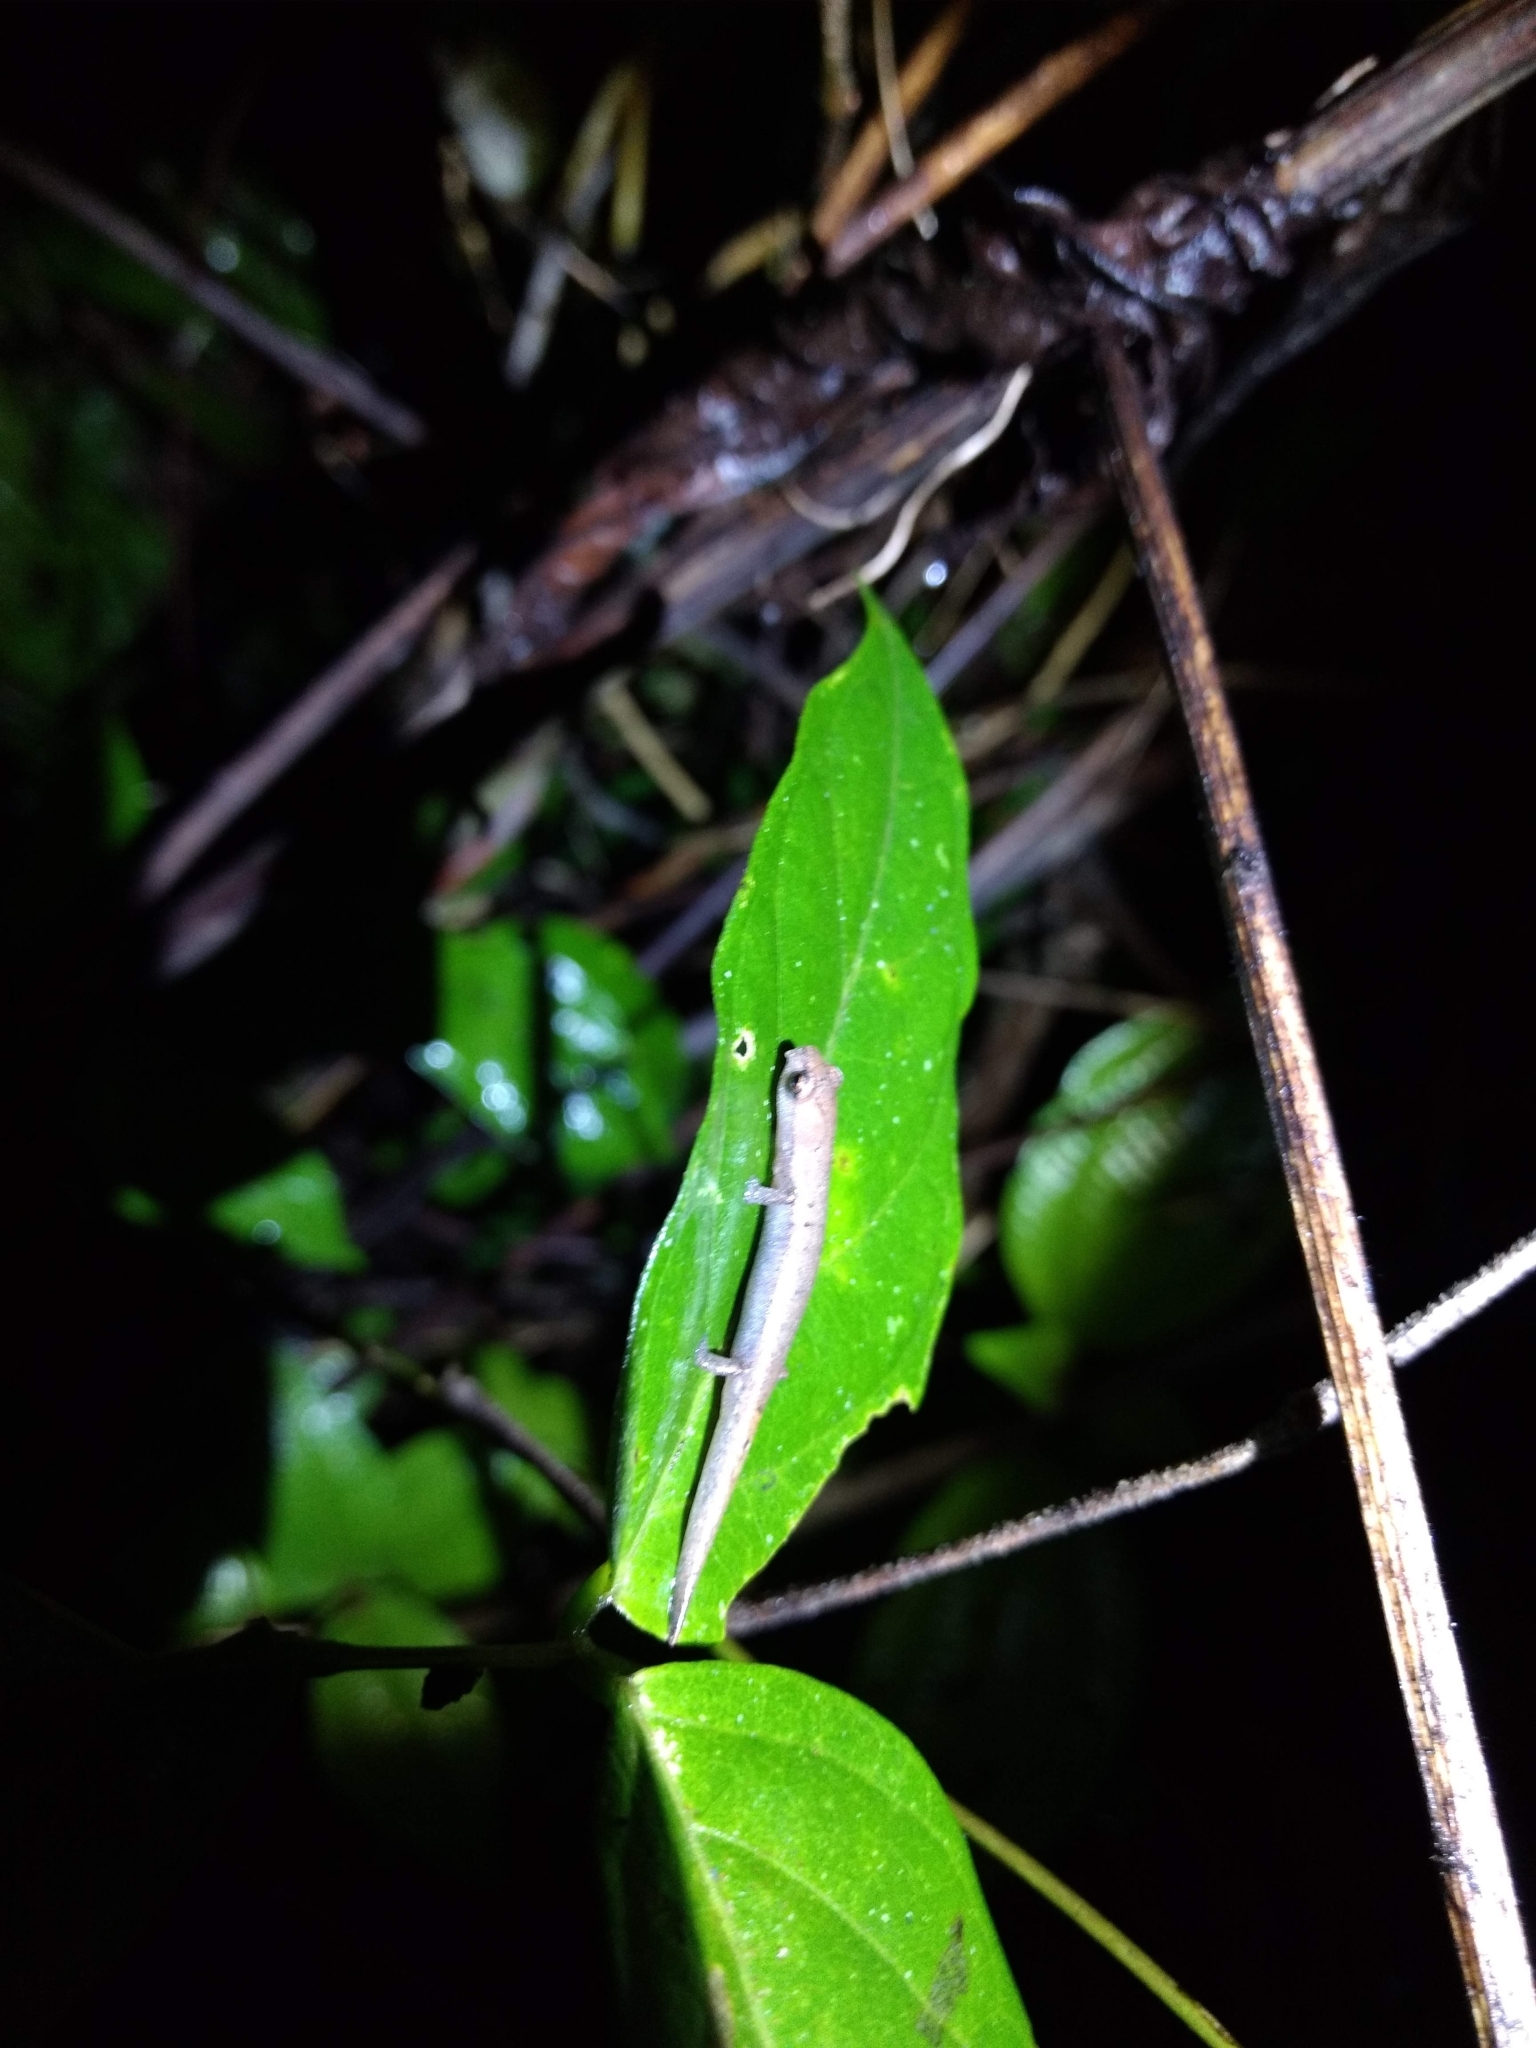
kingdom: Animalia
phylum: Chordata
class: Amphibia
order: Caudata
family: Plethodontidae
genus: Bolitoglossa
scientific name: Bolitoglossa rufescens
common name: Common dwarf salamander
